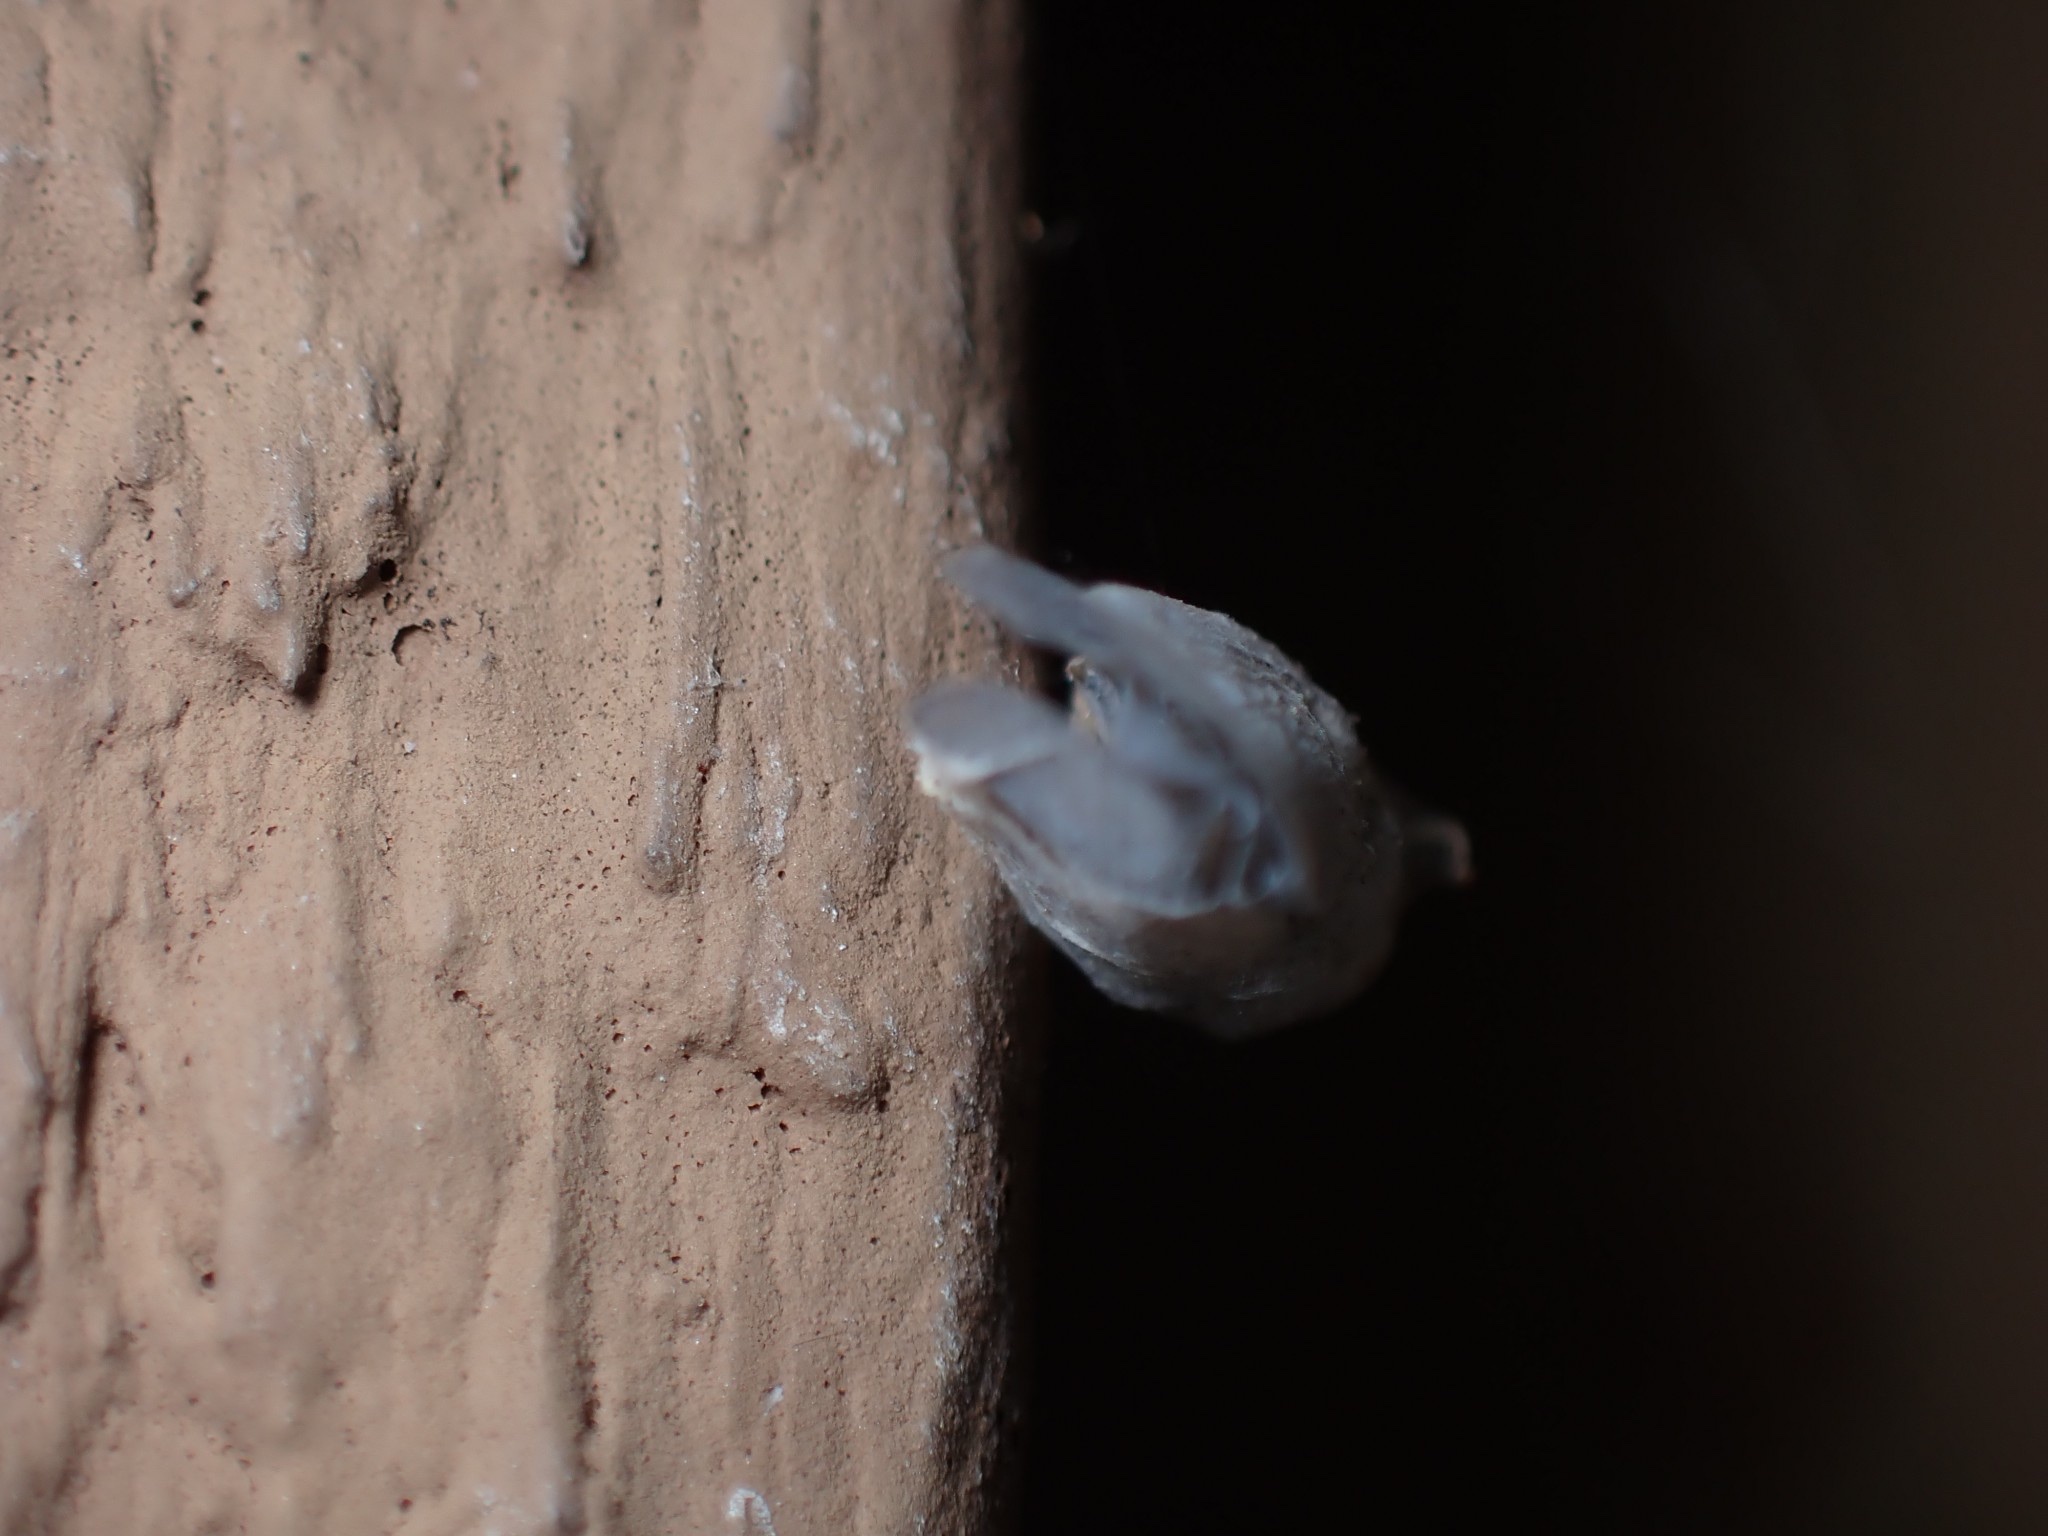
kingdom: Animalia
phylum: Arthropoda
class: Insecta
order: Hemiptera
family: Flatidae
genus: Metcalfa
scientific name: Metcalfa pruinosa
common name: Citrus flatid planthopper
